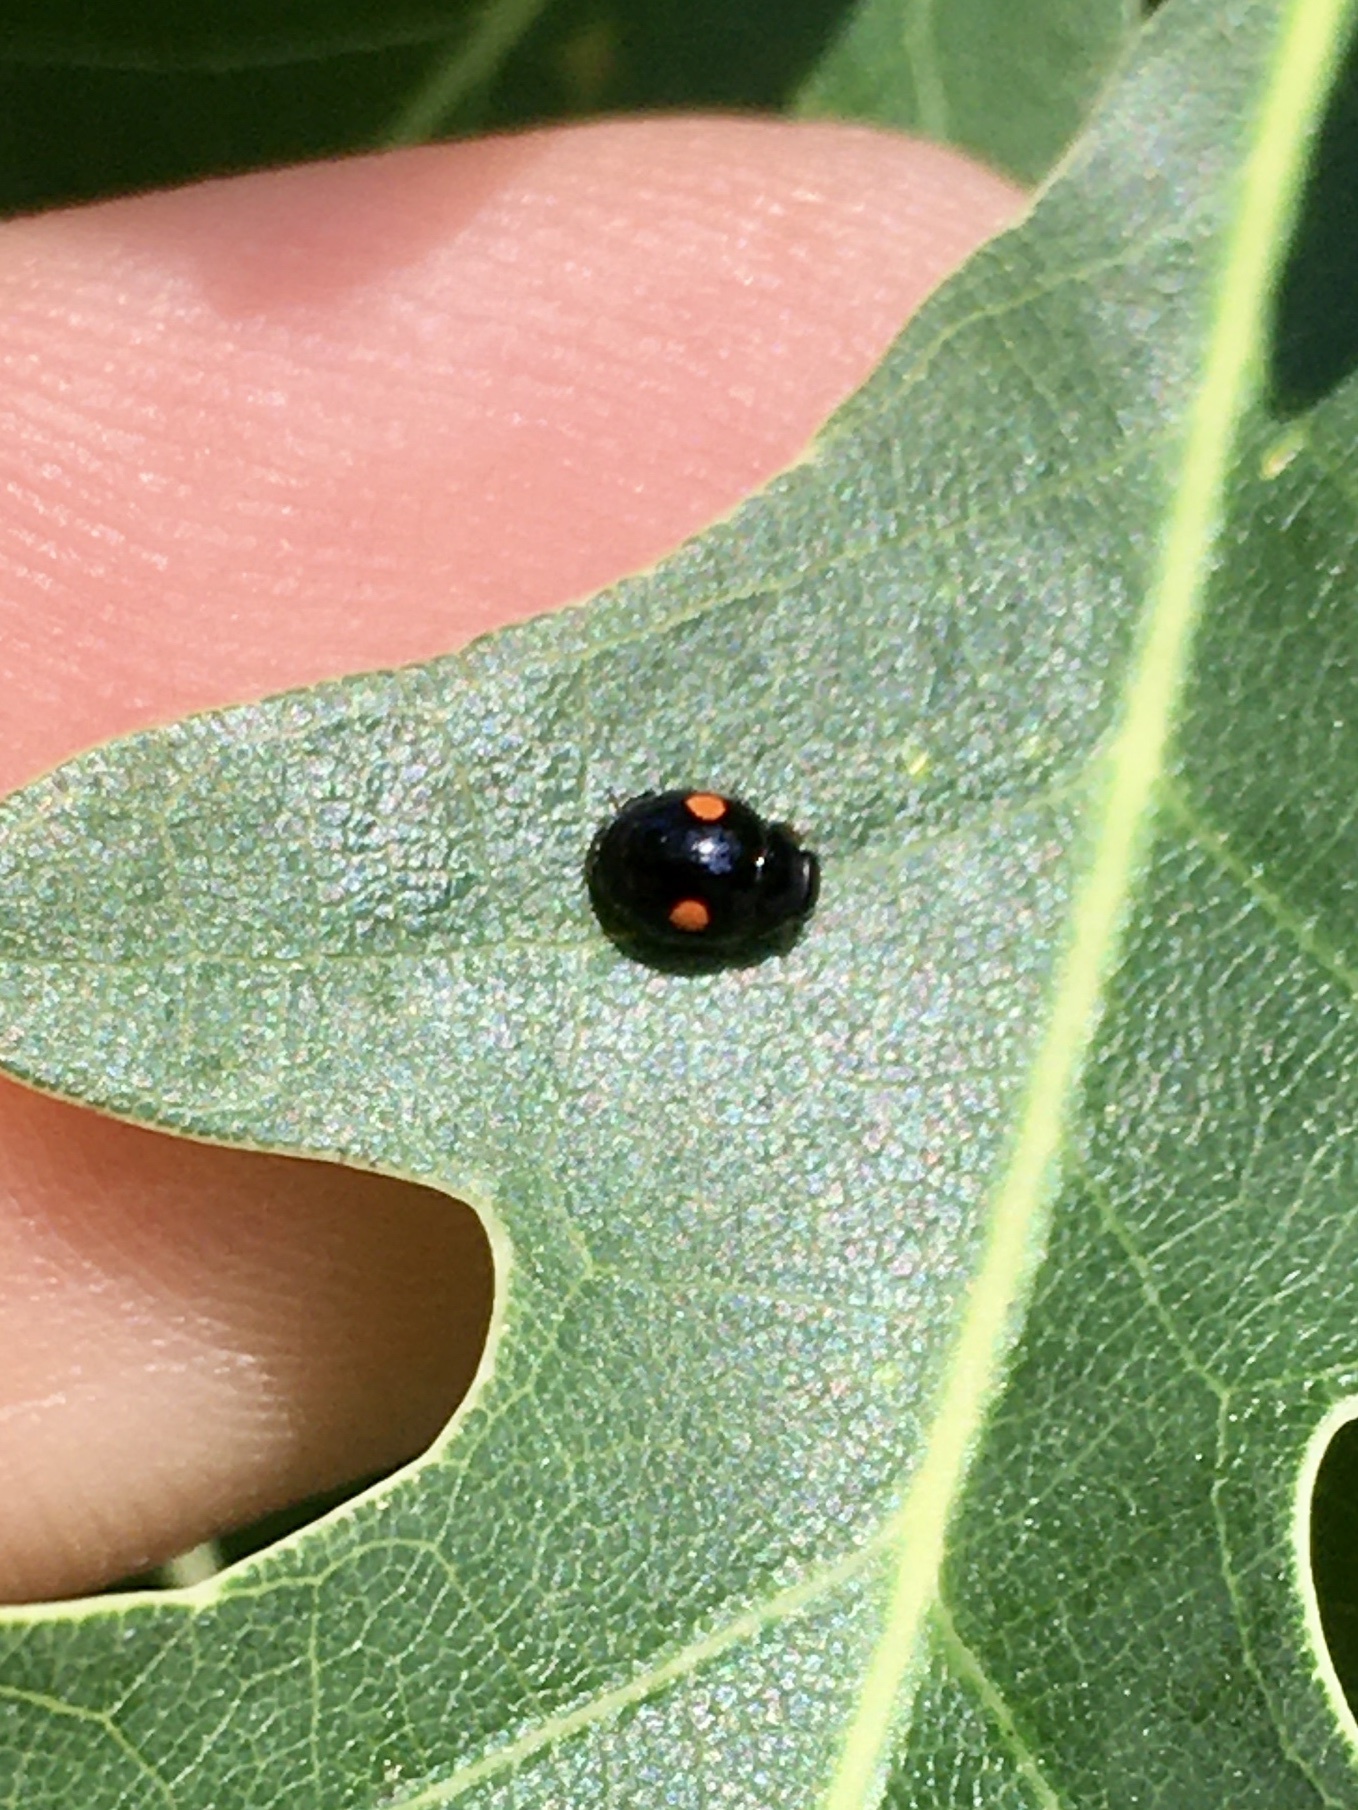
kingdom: Animalia
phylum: Arthropoda
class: Insecta
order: Coleoptera
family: Coccinellidae
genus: Chilocorus
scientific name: Chilocorus stigma
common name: Twicestabbed lady beetle
